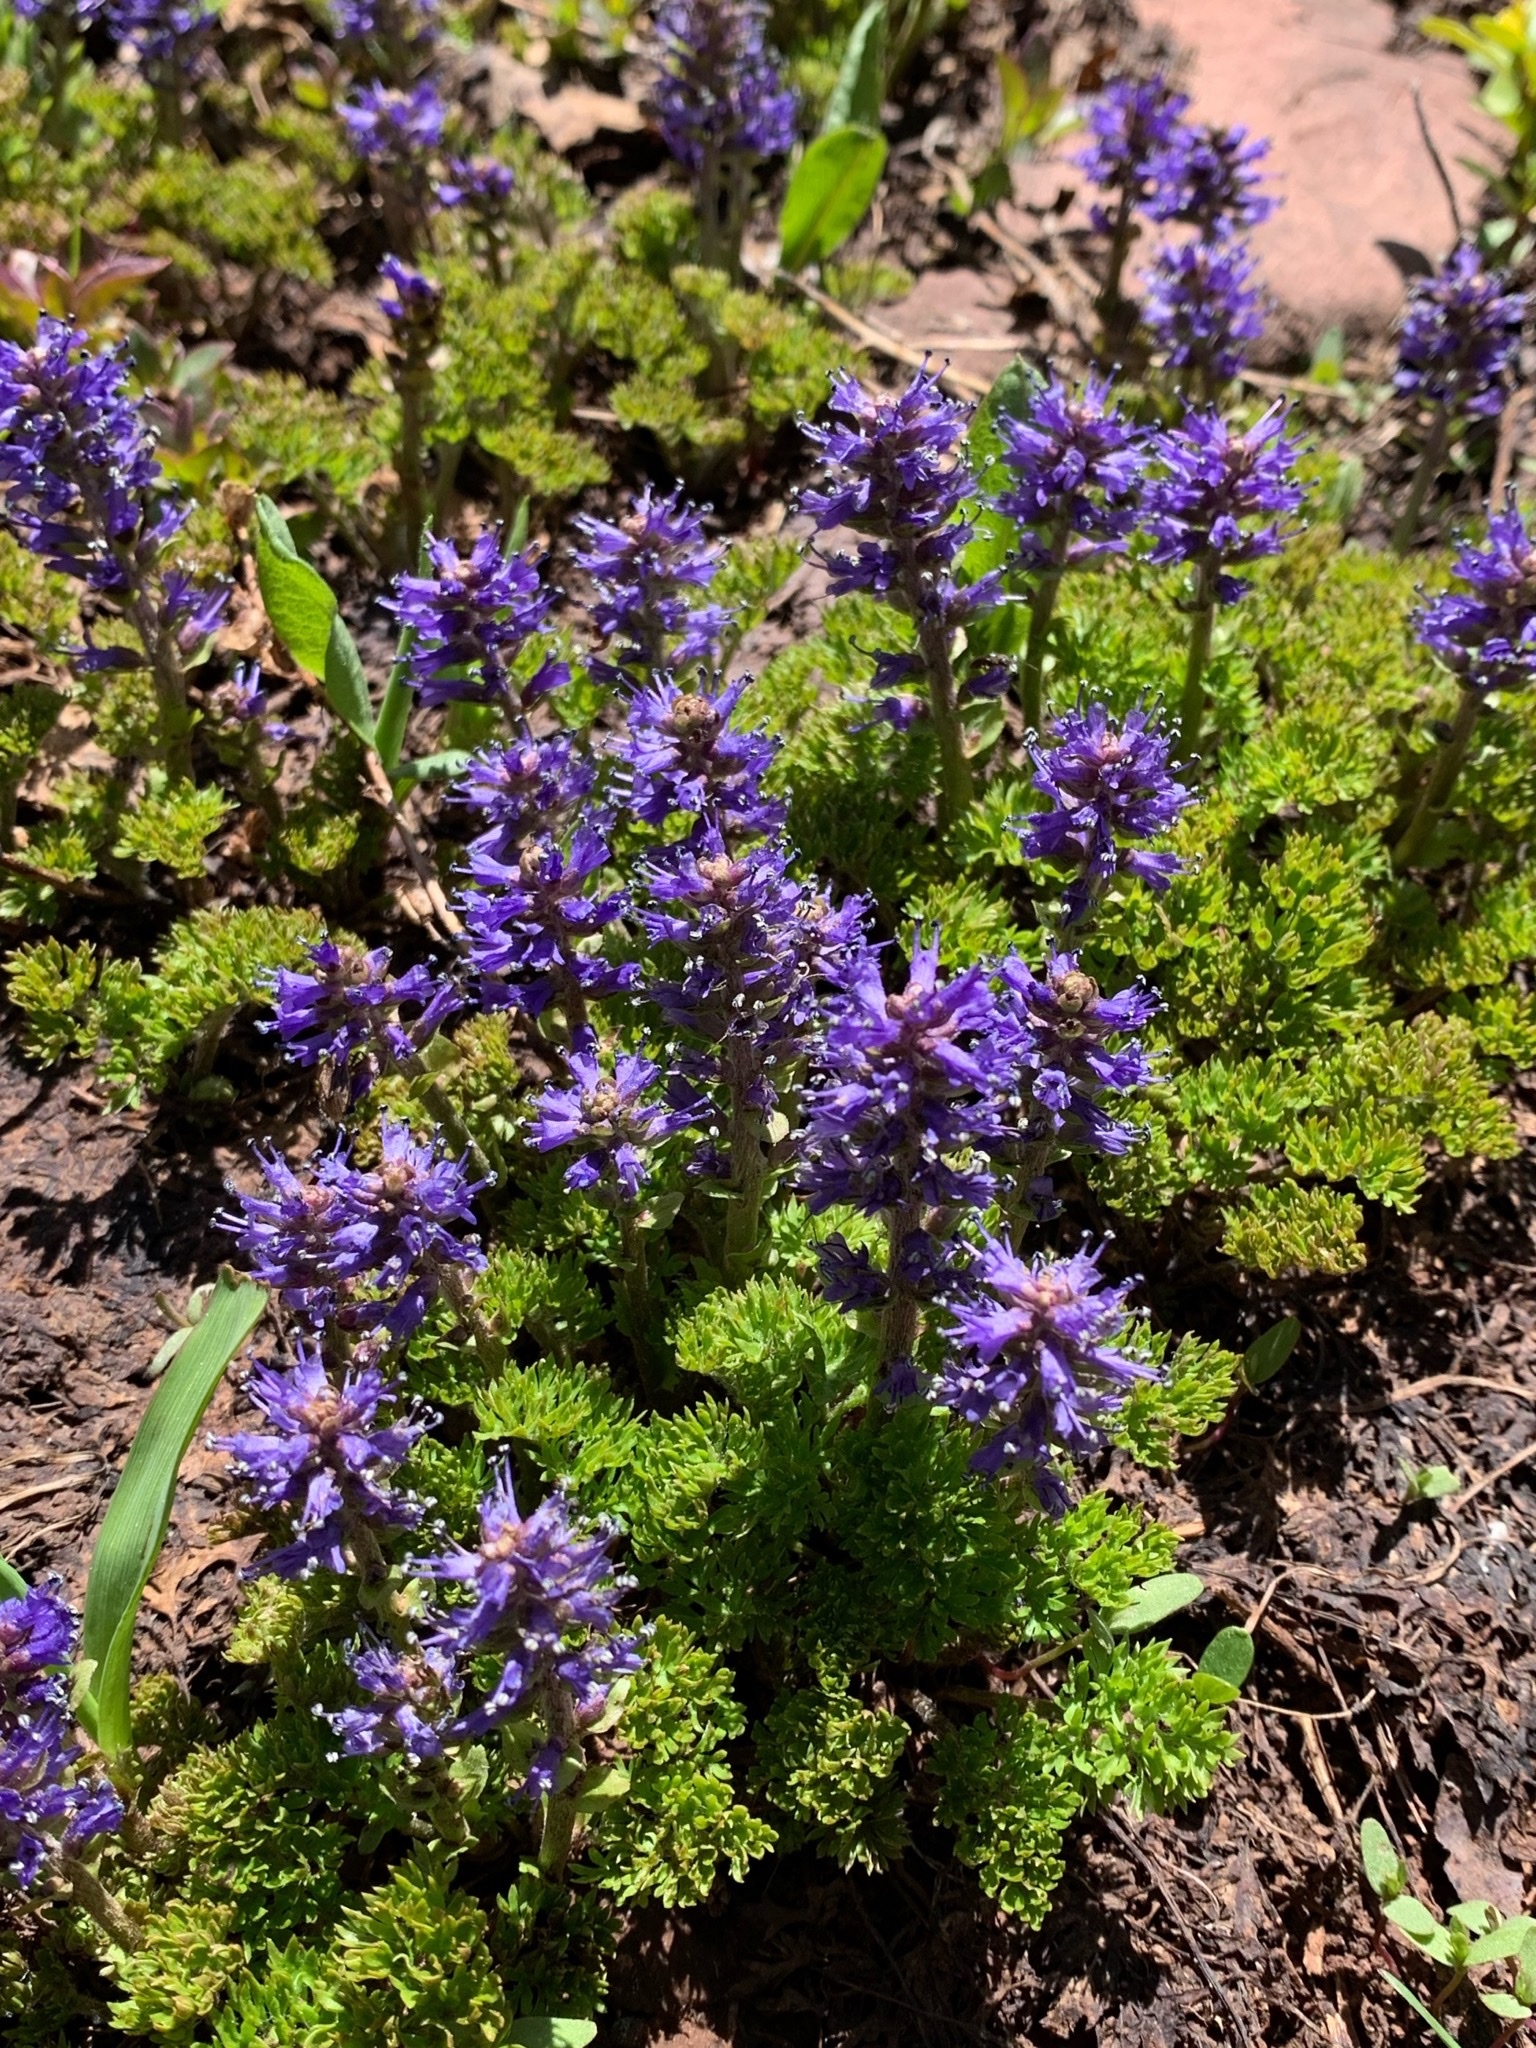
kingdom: Plantae
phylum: Tracheophyta
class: Magnoliopsida
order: Lamiales
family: Plantaginaceae
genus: Synthyris
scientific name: Synthyris pinnatifida
